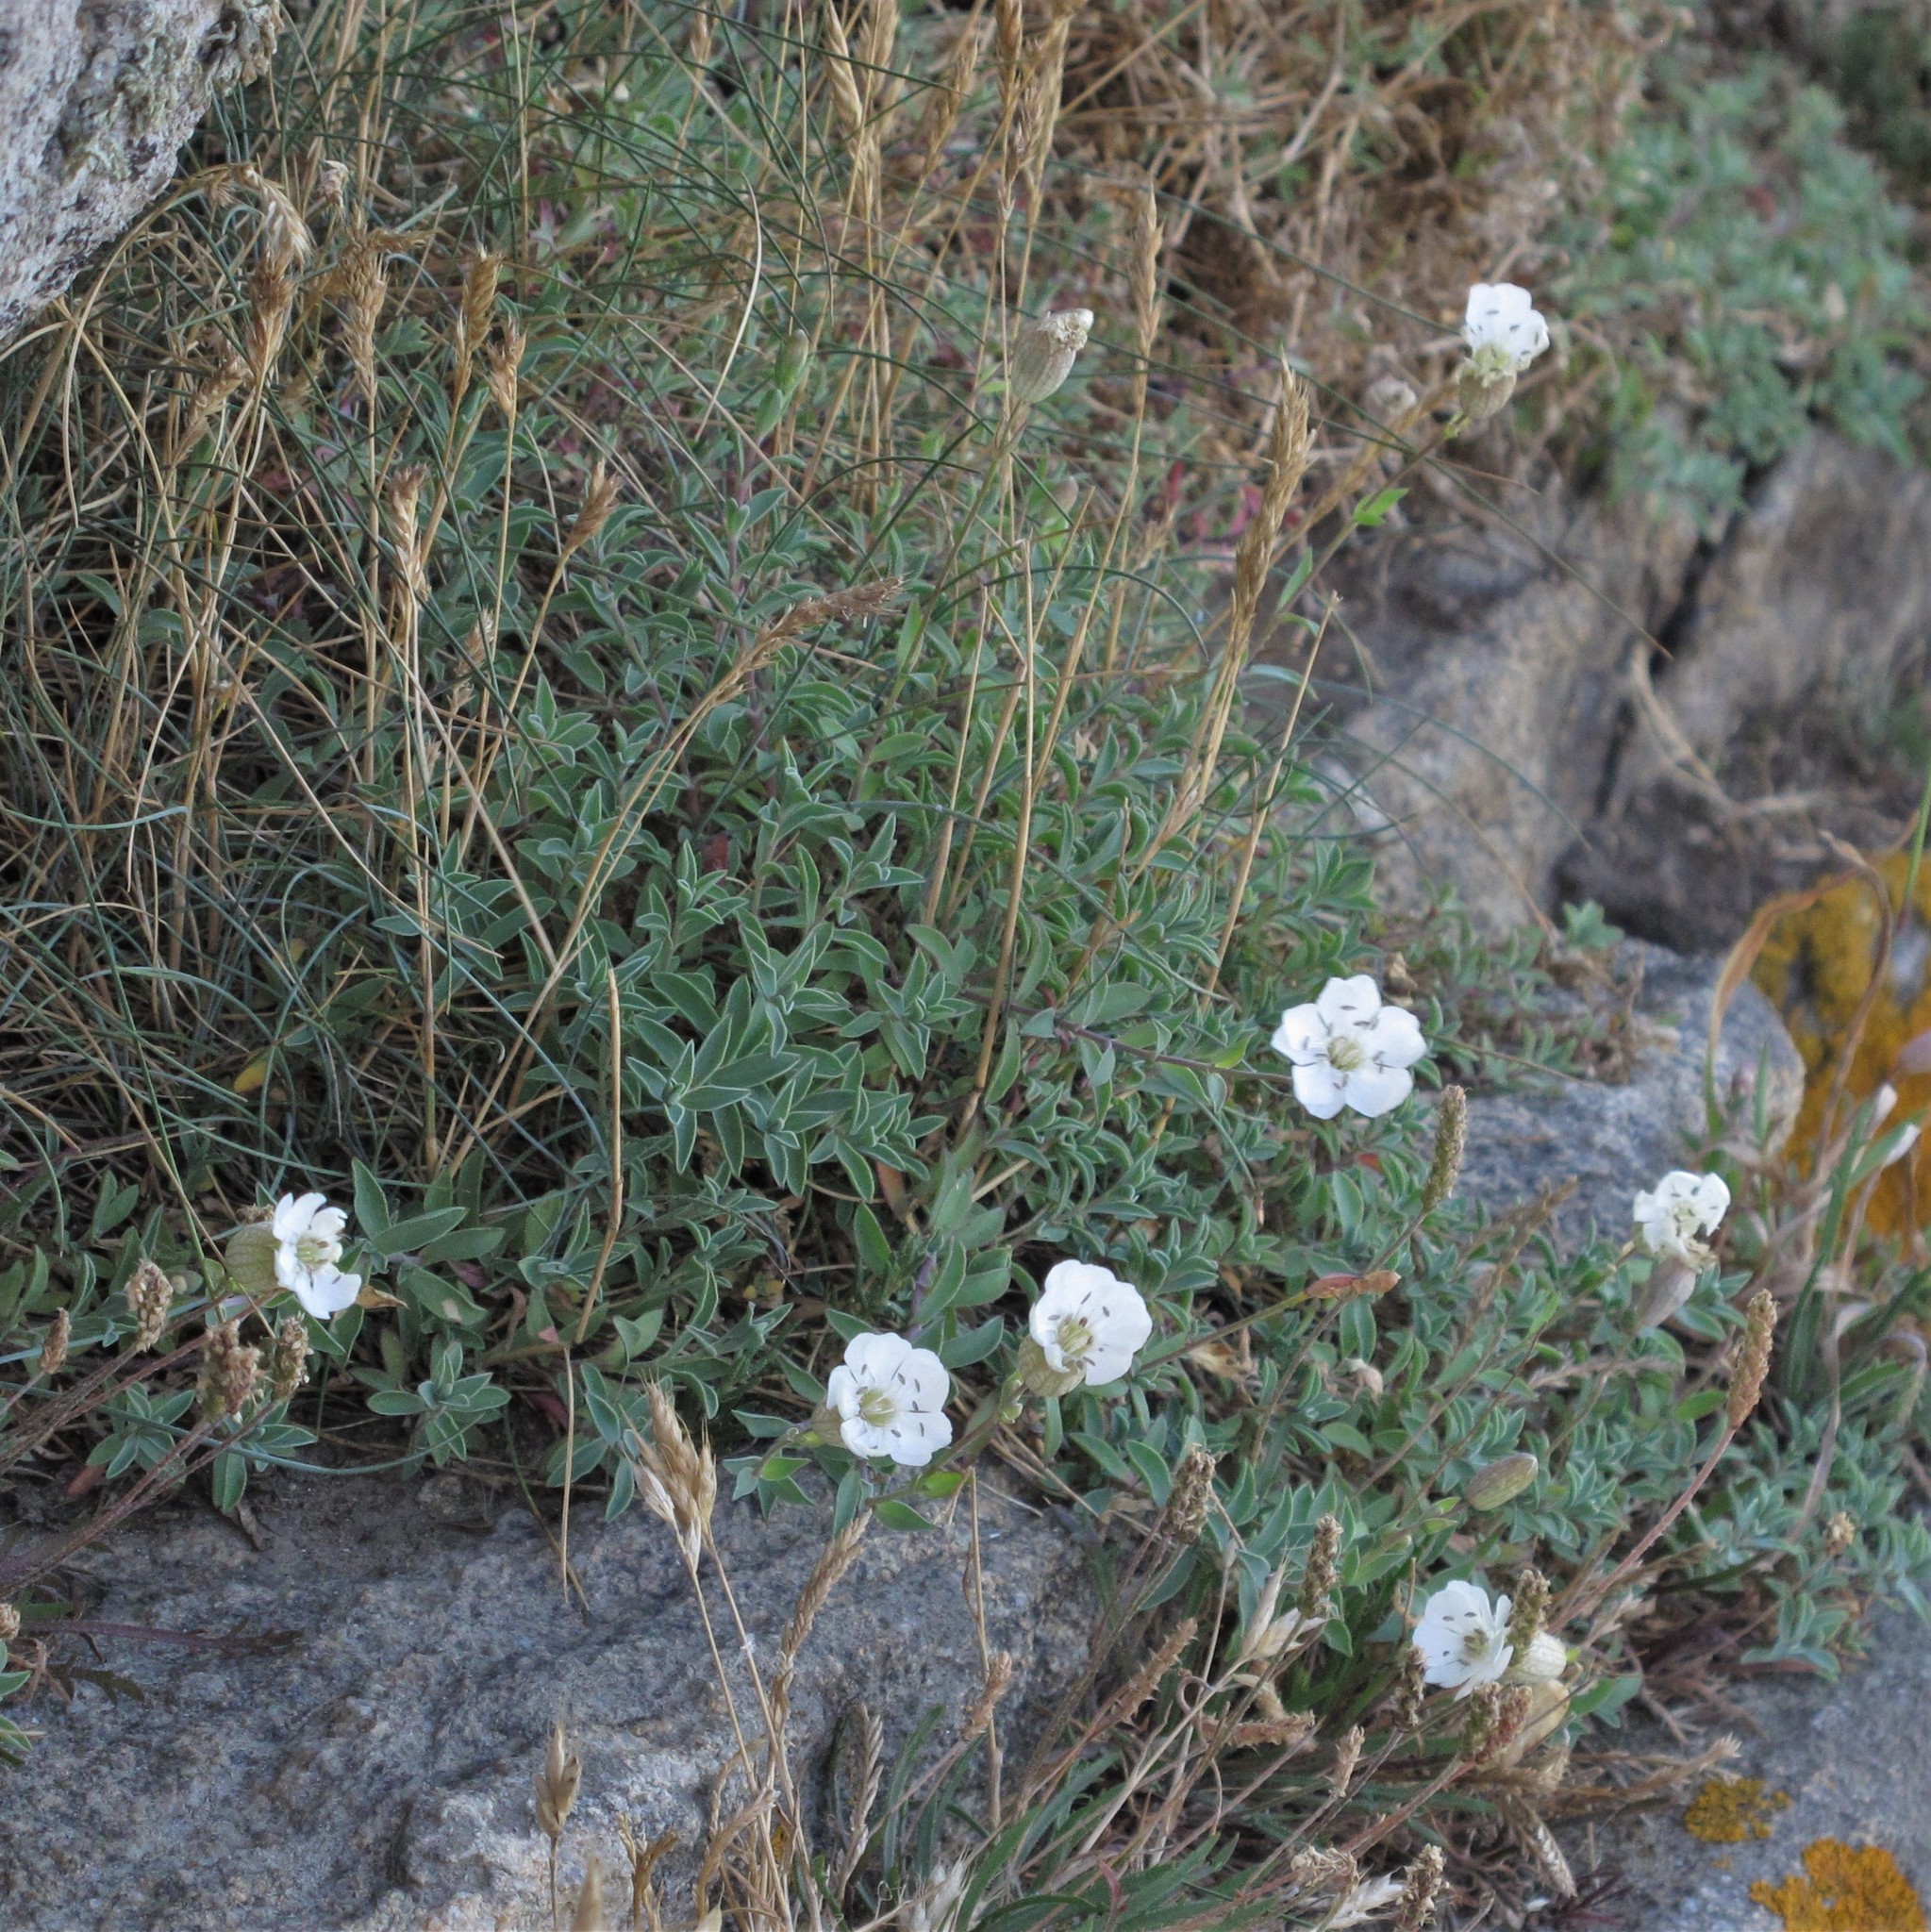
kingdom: Plantae
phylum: Tracheophyta
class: Magnoliopsida
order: Caryophyllales
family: Caryophyllaceae
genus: Silene
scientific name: Silene uniflora
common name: Sea campion
